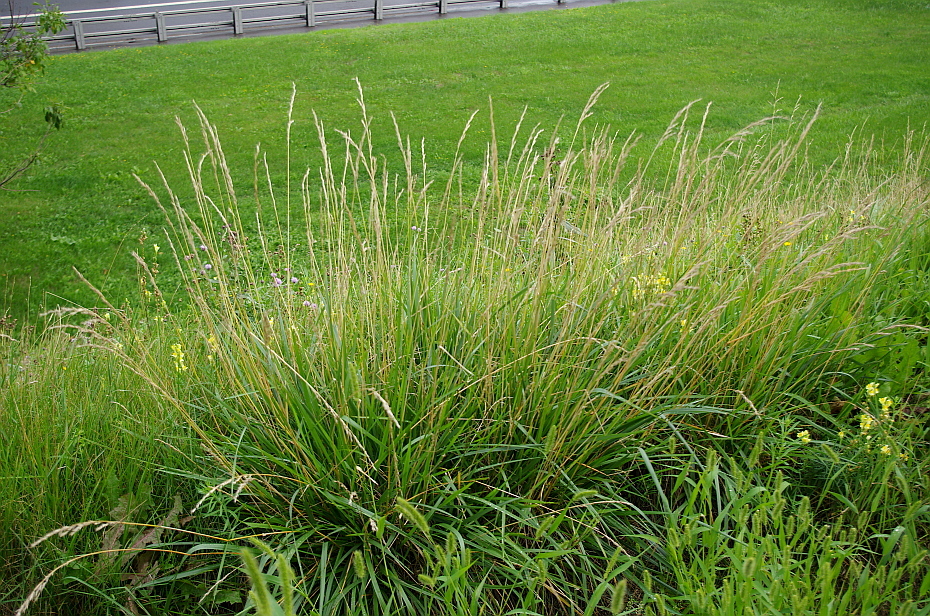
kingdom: Plantae
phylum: Tracheophyta
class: Liliopsida
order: Poales
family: Poaceae
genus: Lolium
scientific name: Lolium pratense
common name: Dover grass
